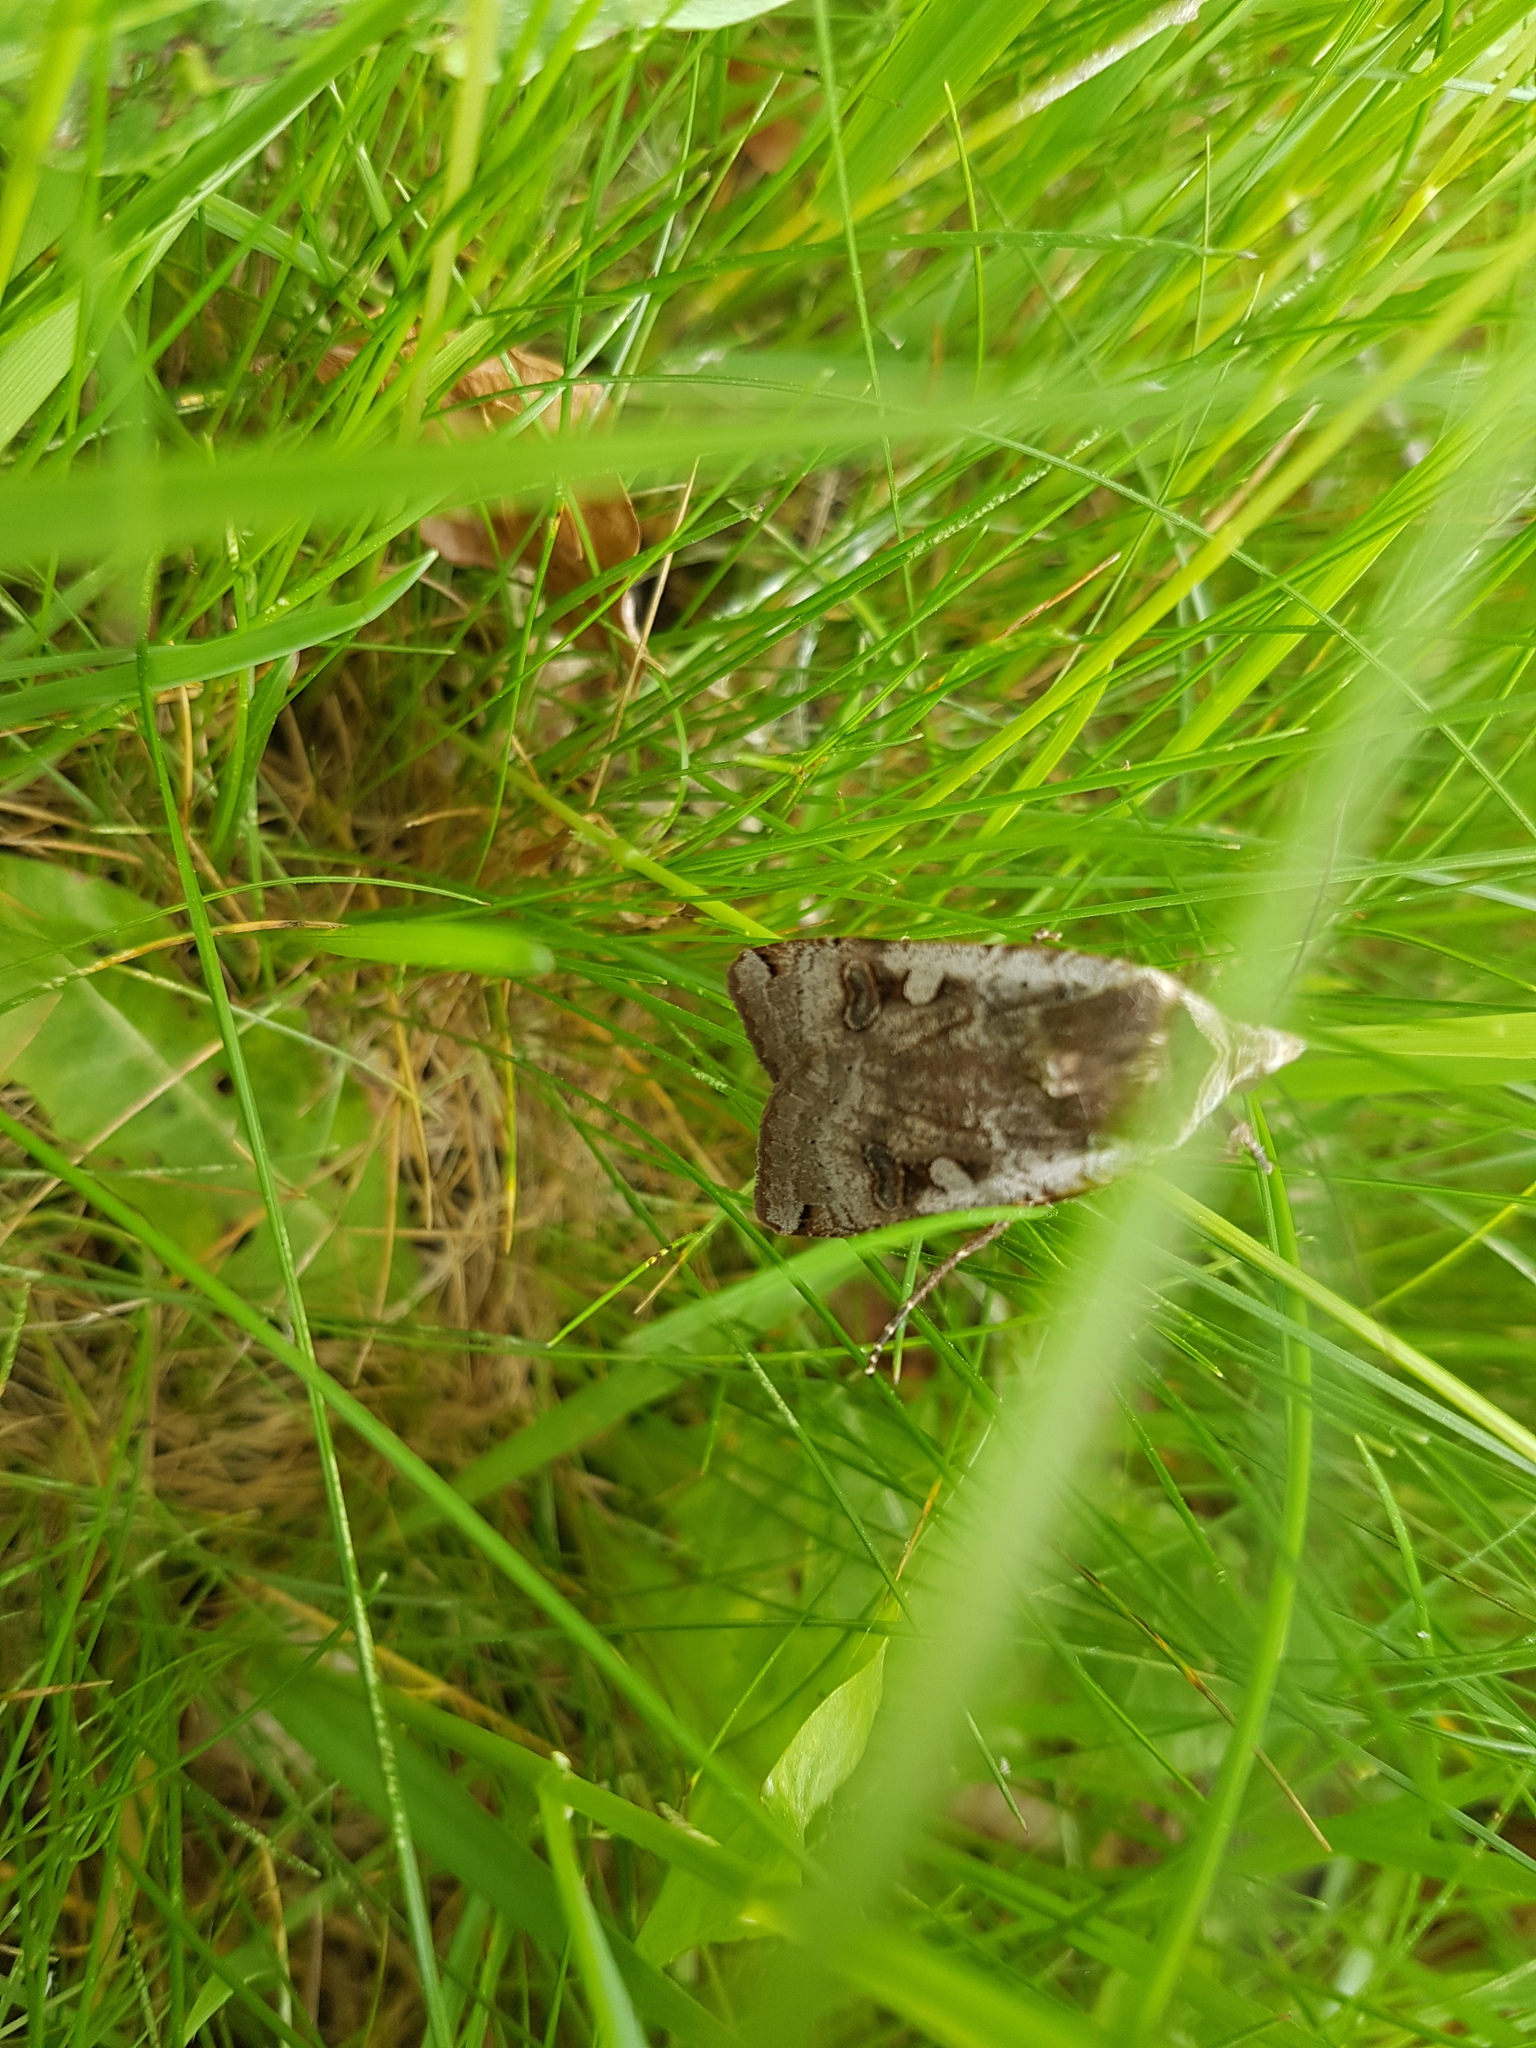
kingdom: Animalia
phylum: Arthropoda
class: Insecta
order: Lepidoptera
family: Noctuidae
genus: Noctua
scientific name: Noctua pronuba
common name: Large yellow underwing
